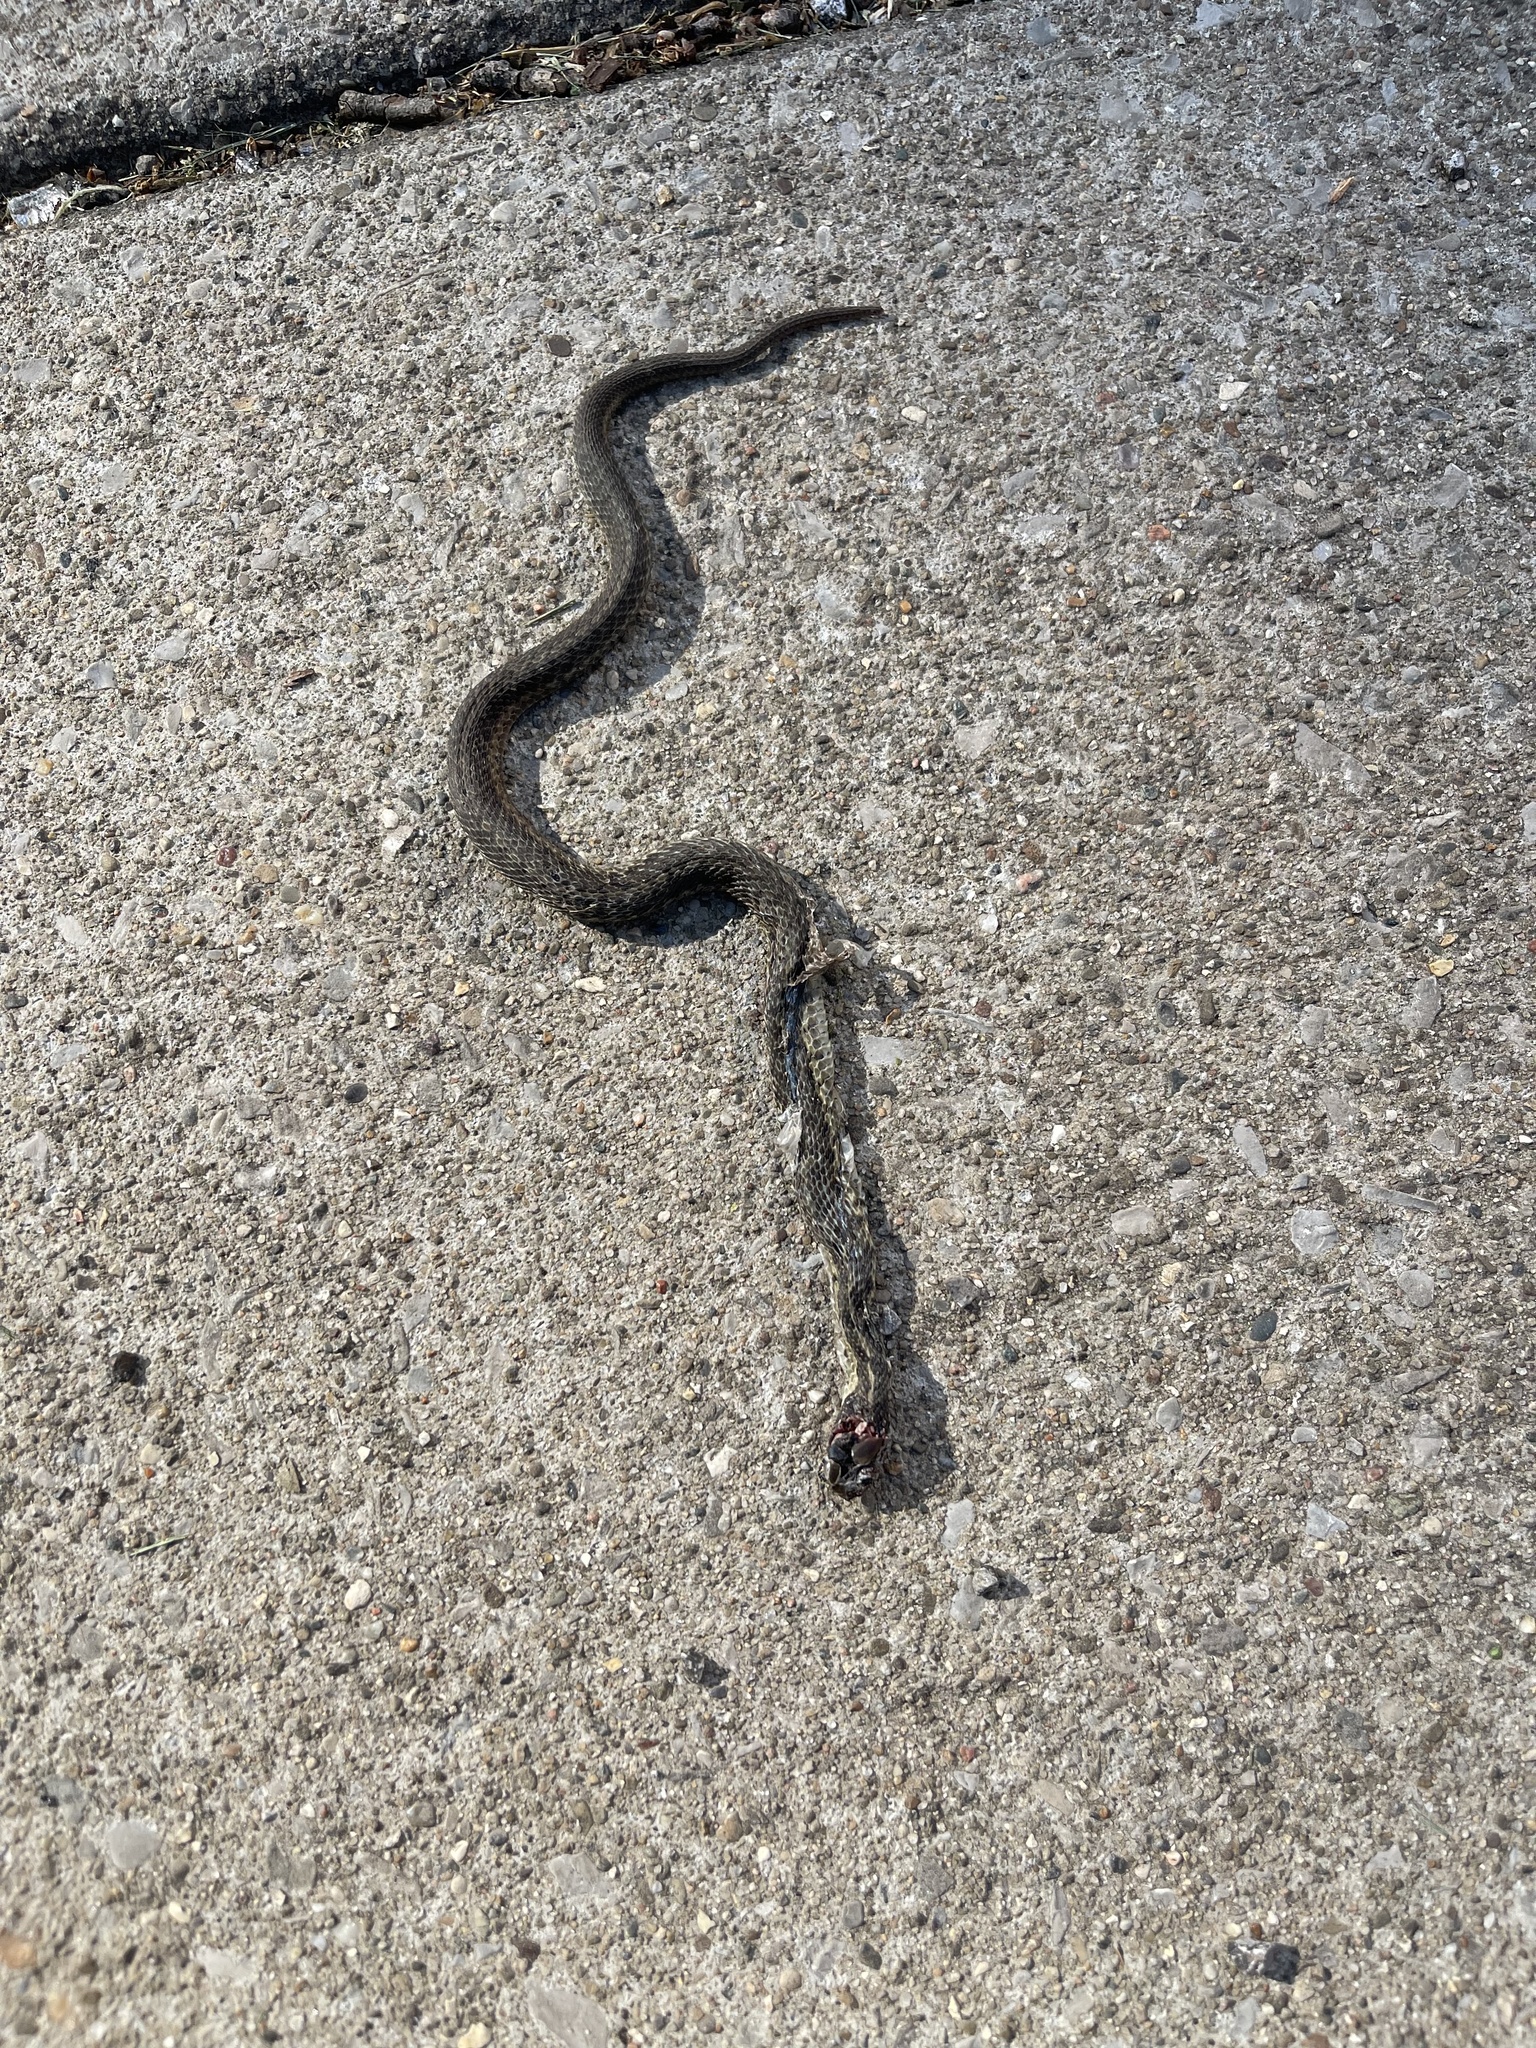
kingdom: Animalia
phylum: Chordata
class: Squamata
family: Colubridae
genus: Thamnophis
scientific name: Thamnophis sirtalis
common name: Common garter snake
